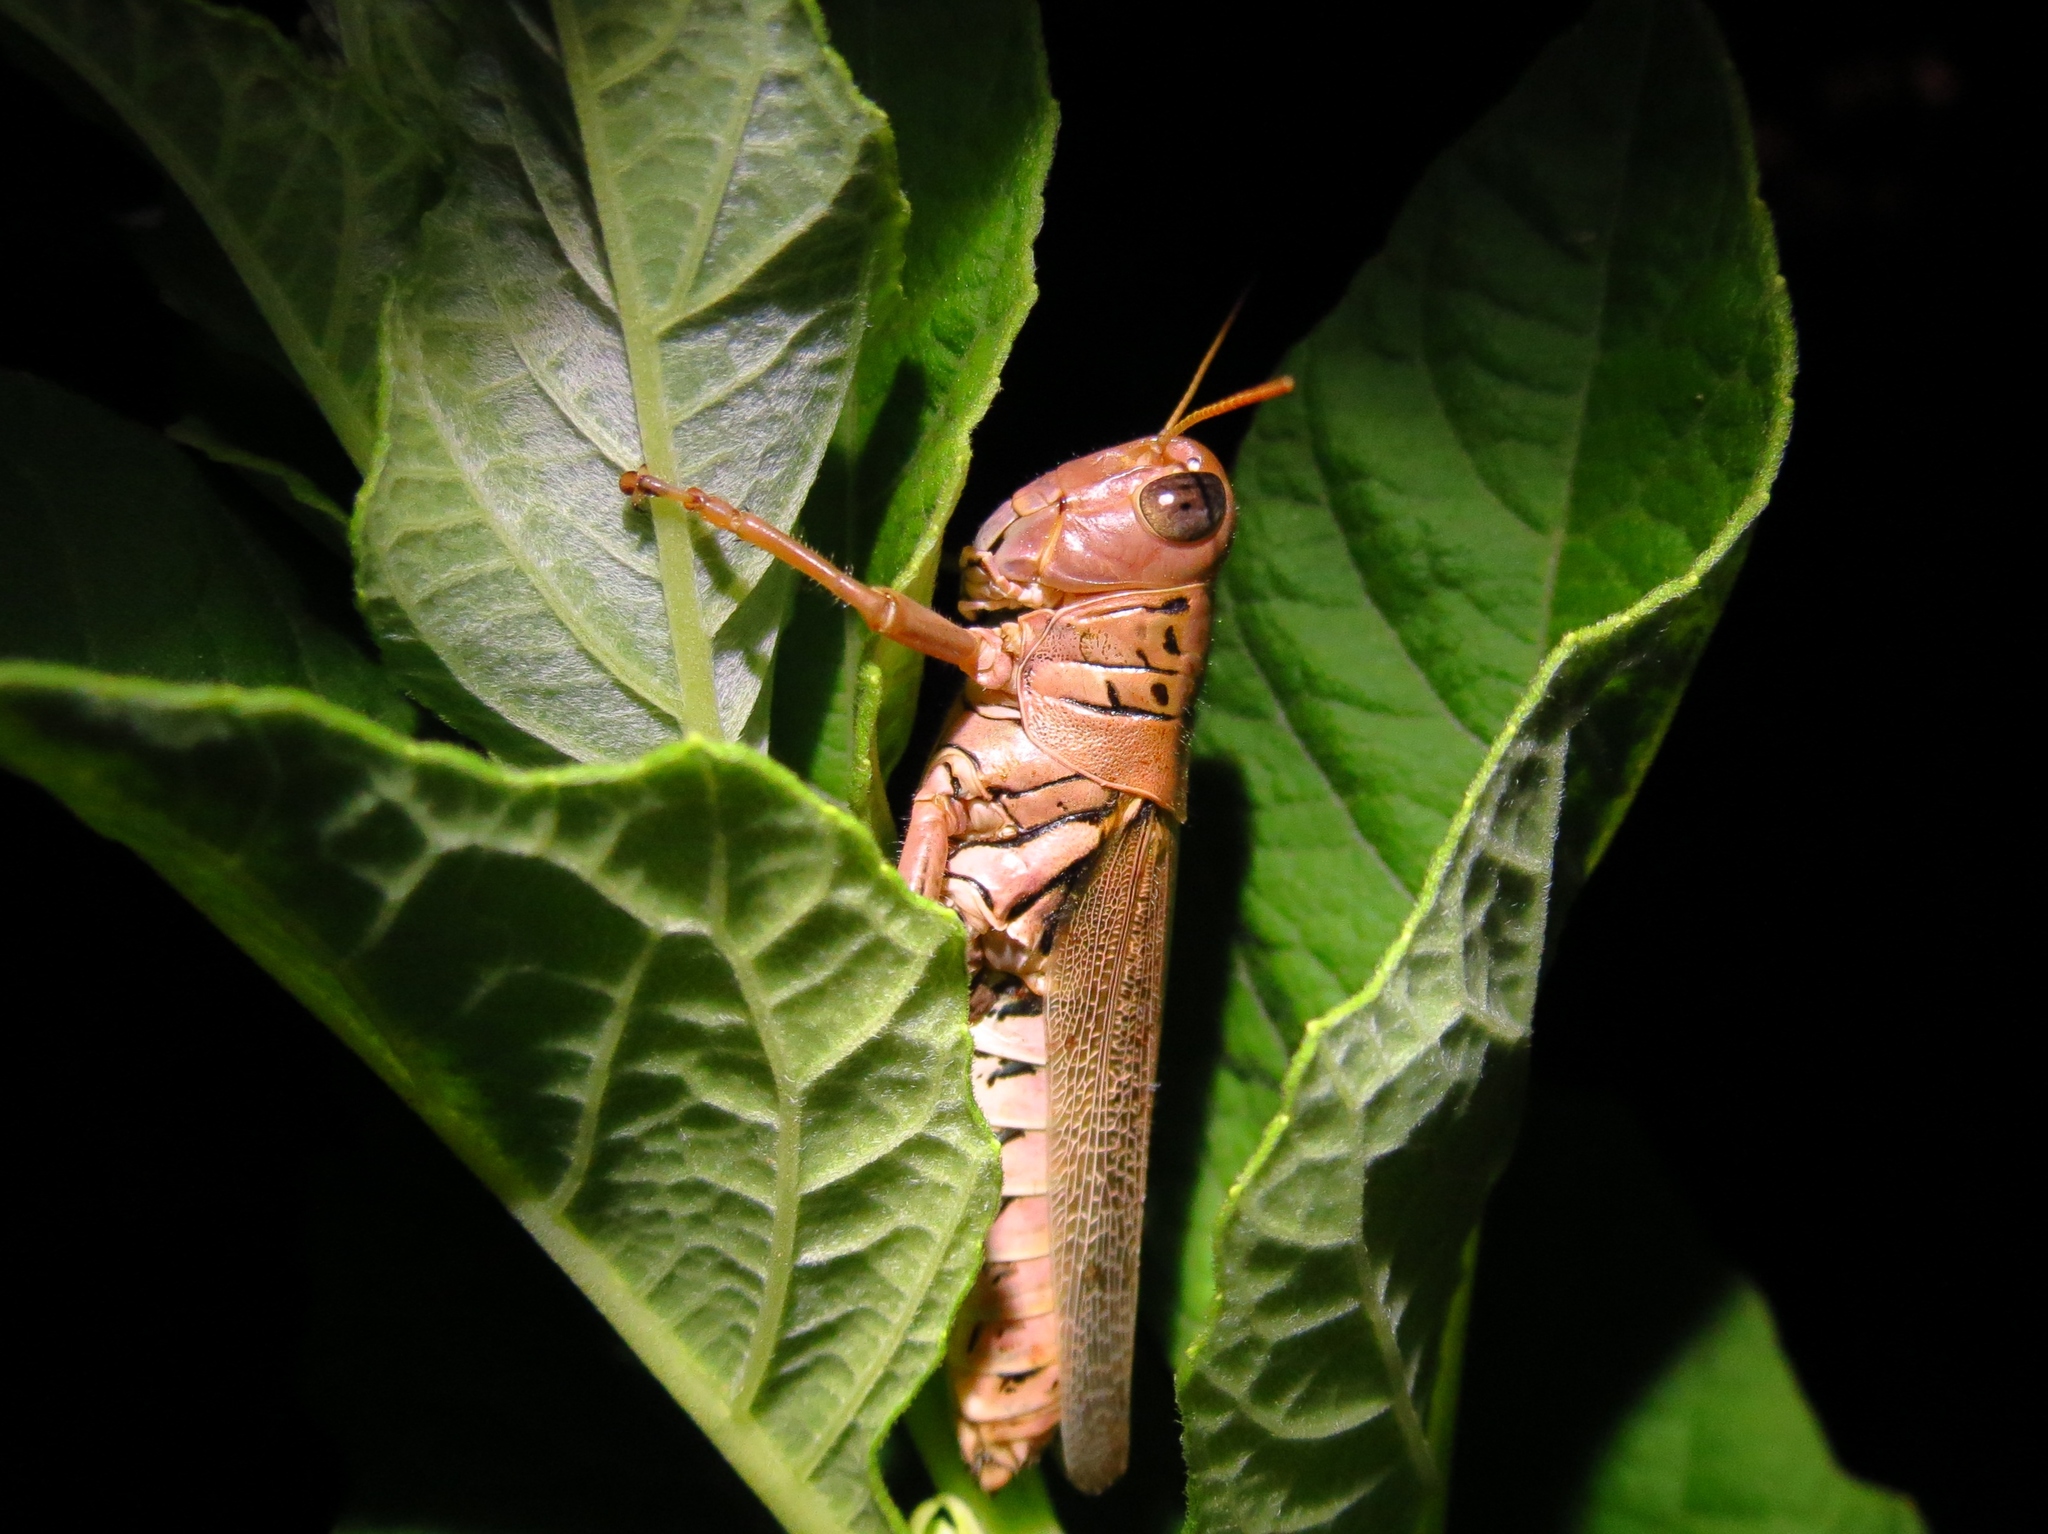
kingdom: Animalia
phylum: Arthropoda
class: Insecta
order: Orthoptera
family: Acrididae
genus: Melanoplus
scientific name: Melanoplus differentialis
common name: Differential grasshopper
